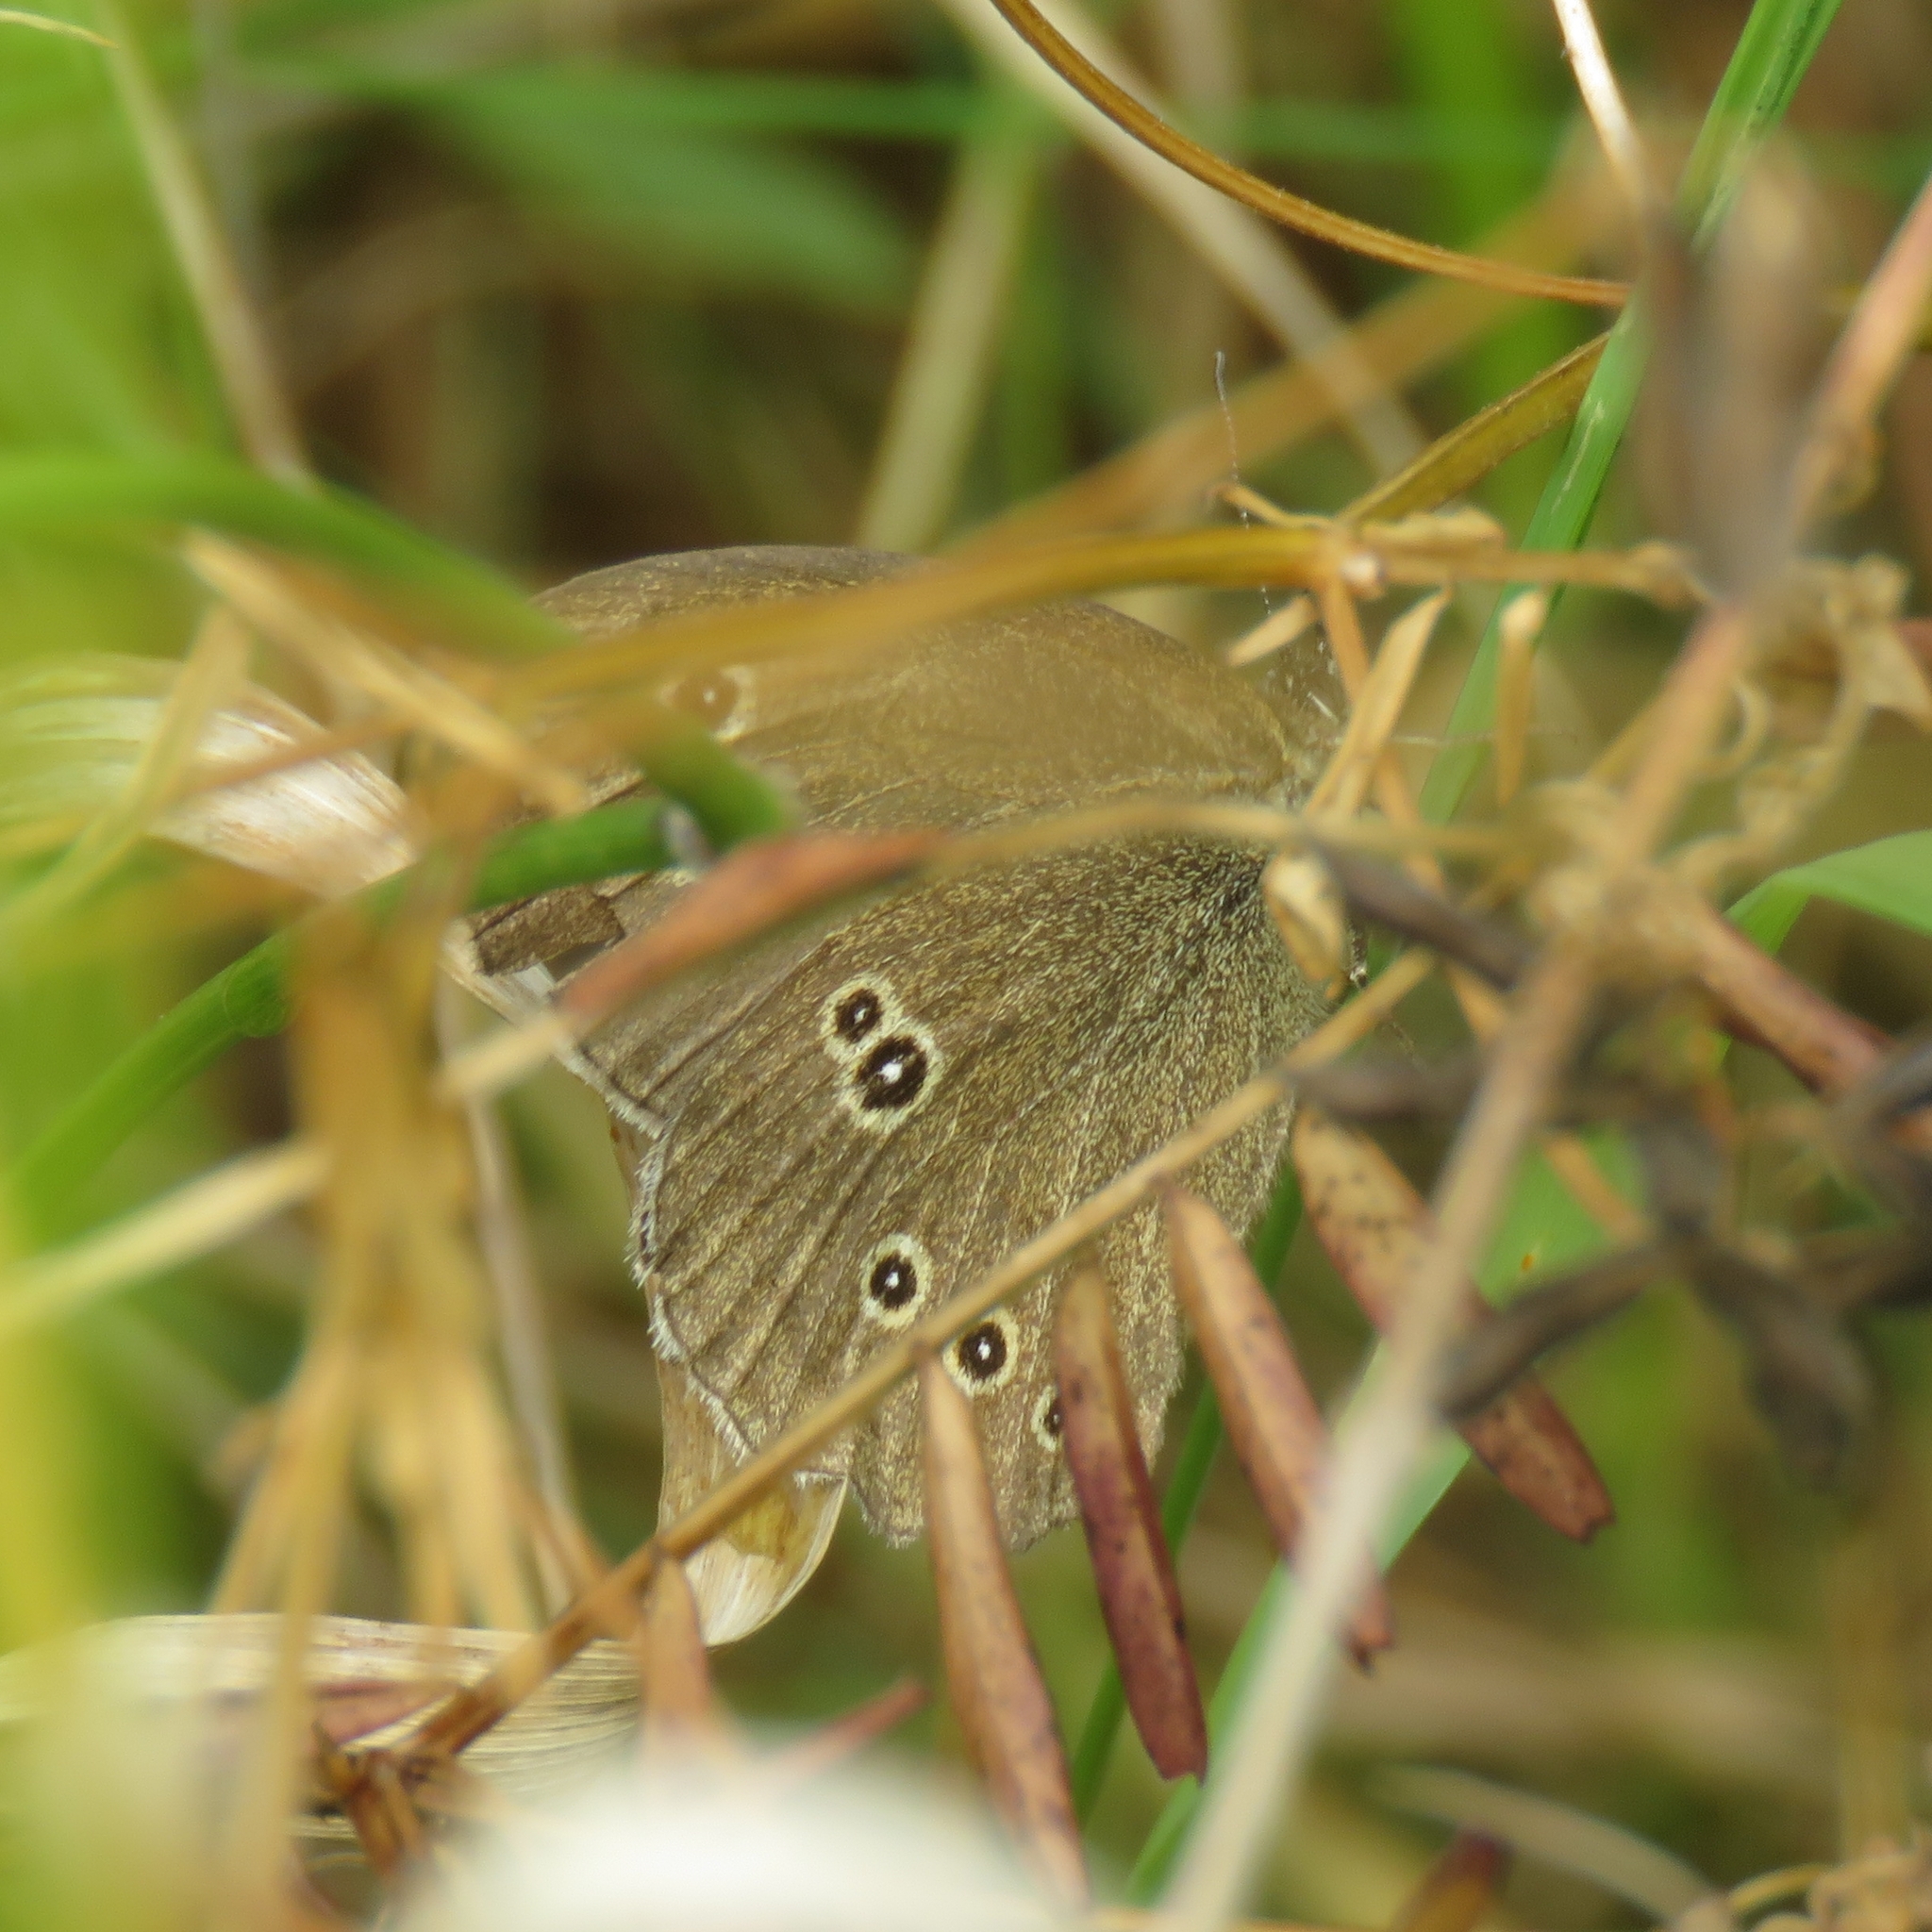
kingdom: Animalia
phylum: Arthropoda
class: Insecta
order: Lepidoptera
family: Nymphalidae
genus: Aphantopus
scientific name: Aphantopus hyperantus
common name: Ringlet
